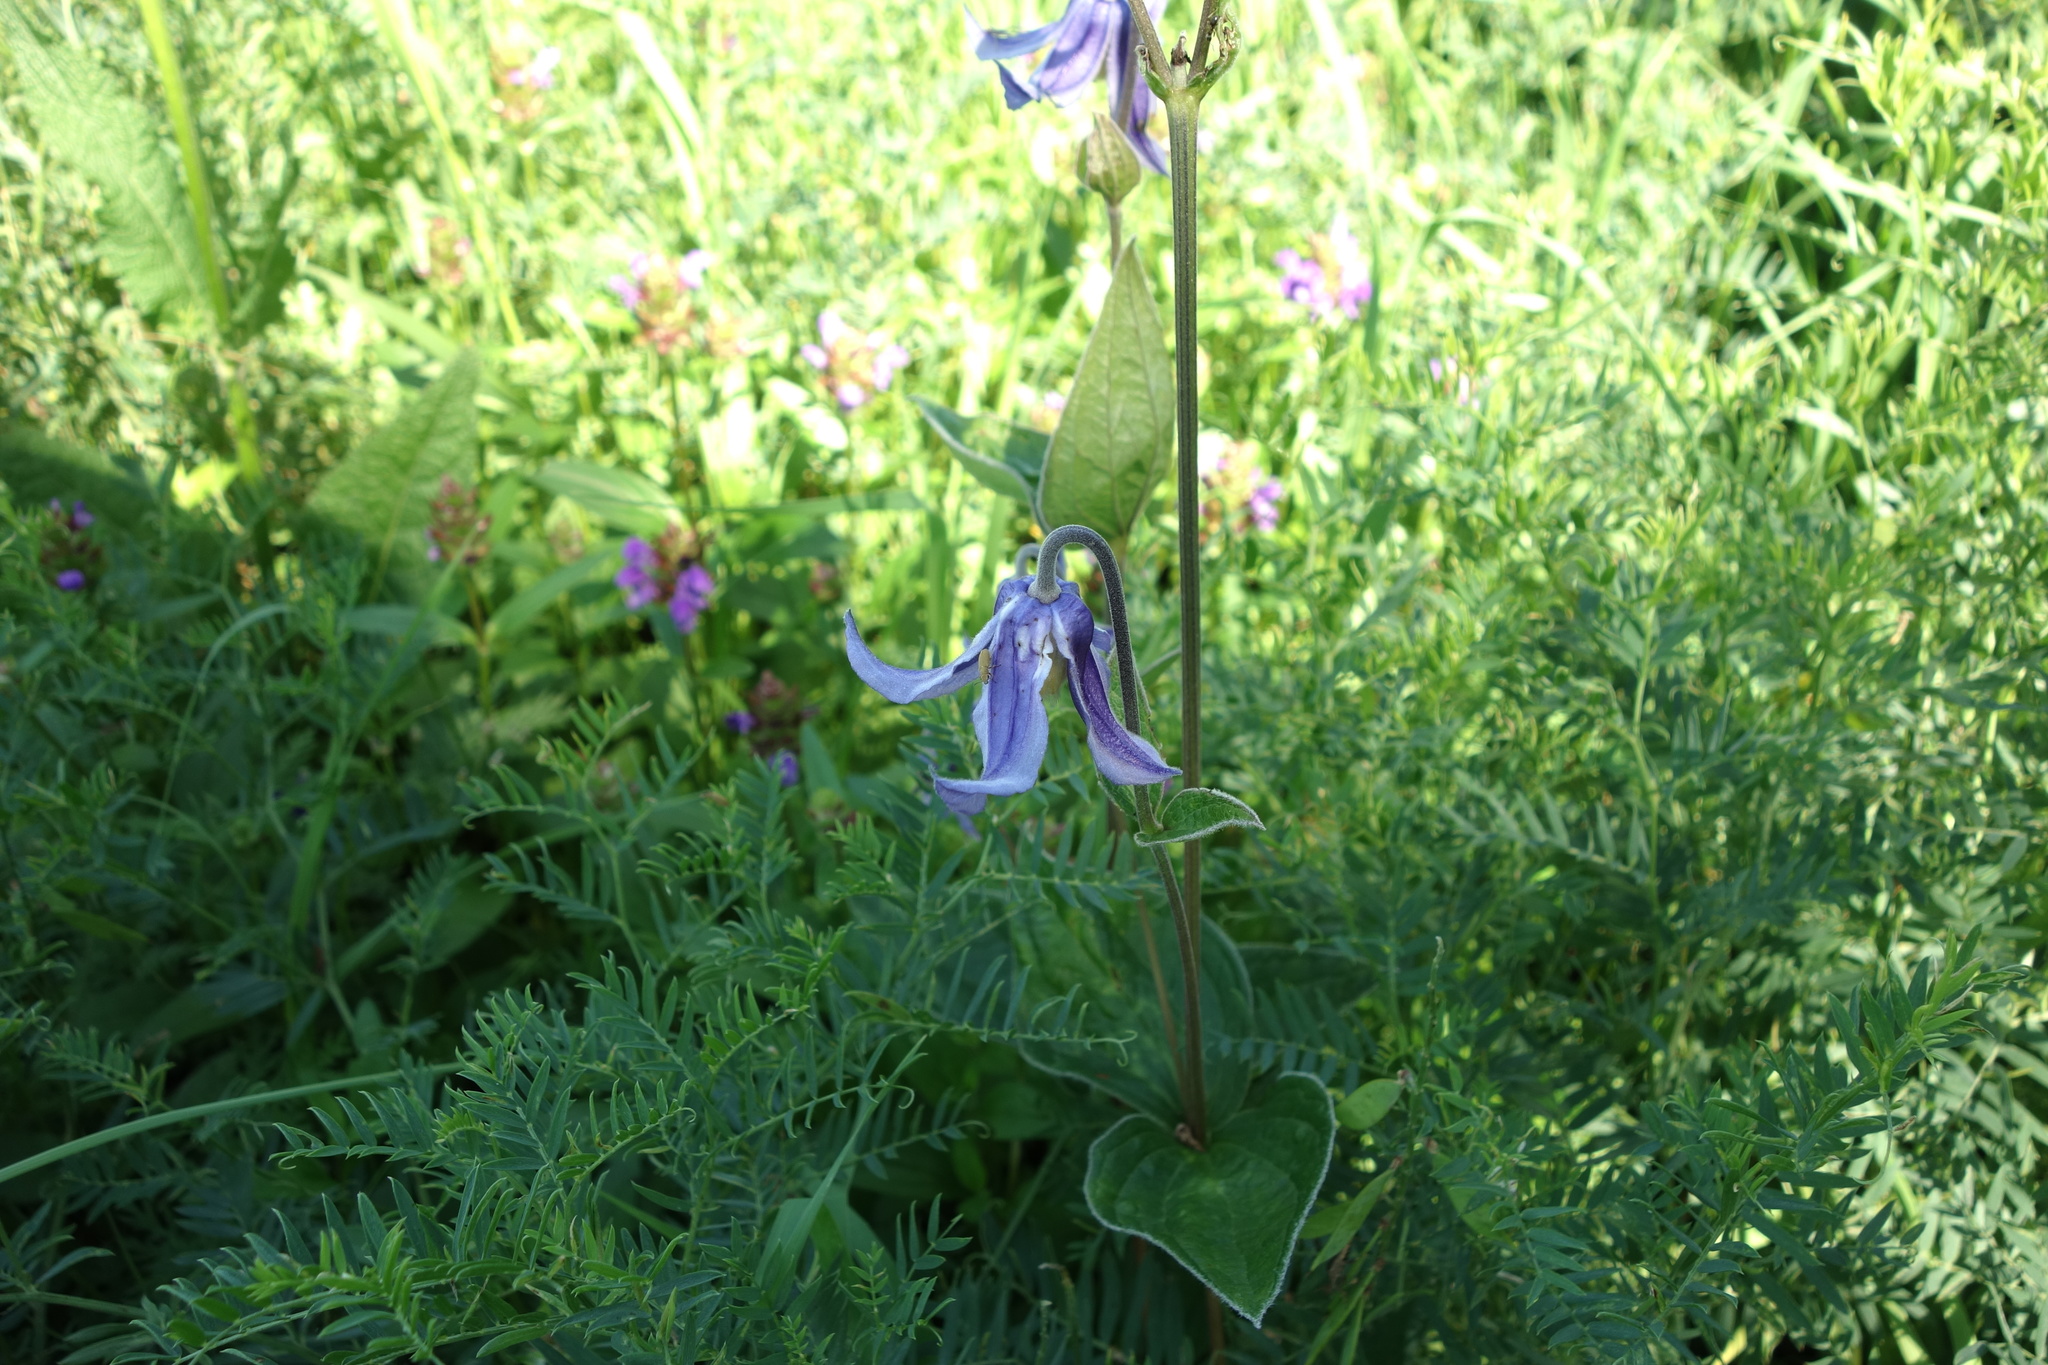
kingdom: Plantae
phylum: Tracheophyta
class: Magnoliopsida
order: Ranunculales
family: Ranunculaceae
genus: Clematis
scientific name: Clematis integrifolia
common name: Solitary clematis
